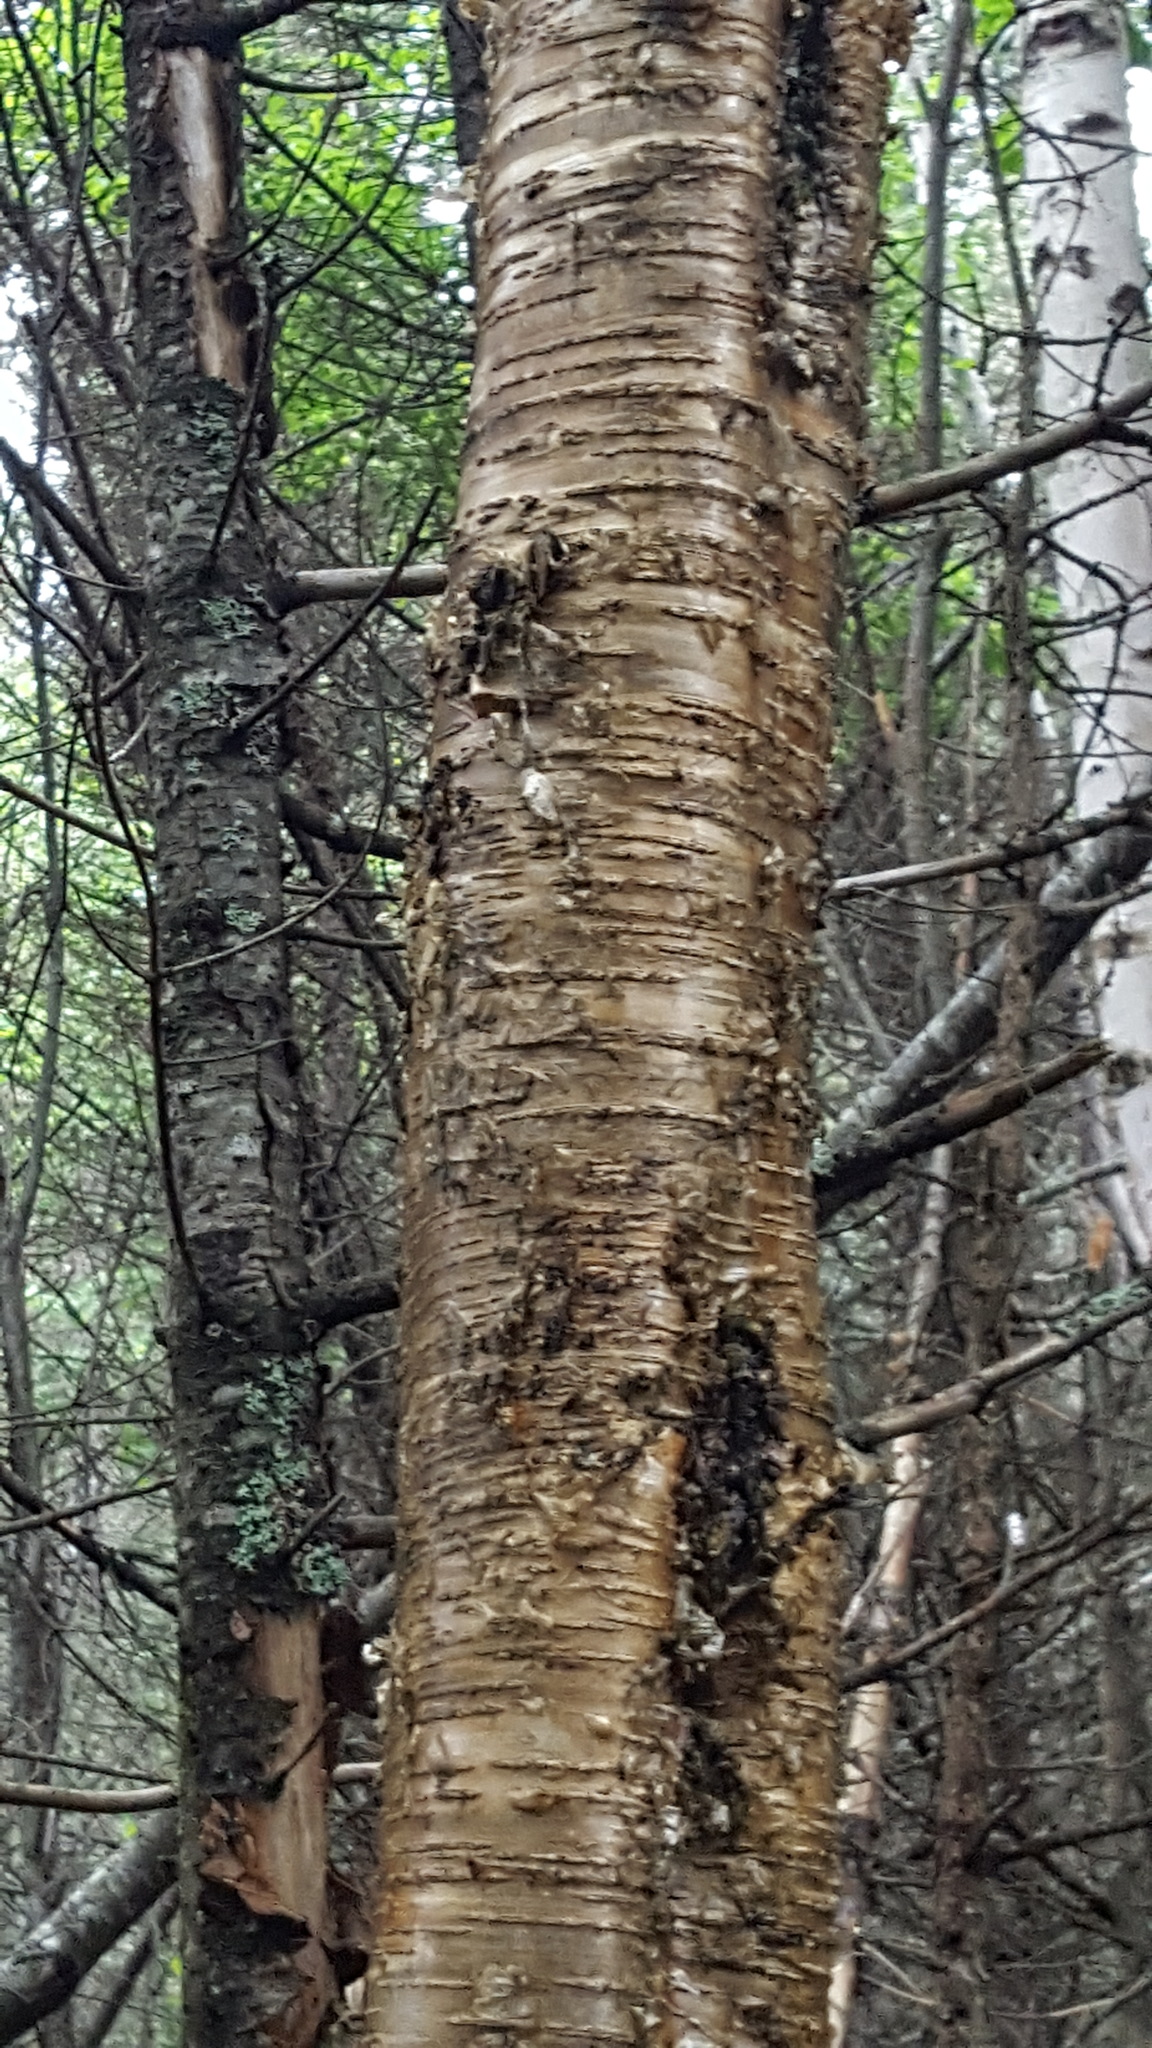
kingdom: Plantae
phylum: Tracheophyta
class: Magnoliopsida
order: Fagales
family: Betulaceae
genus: Betula
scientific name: Betula alleghaniensis
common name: Yellow birch
